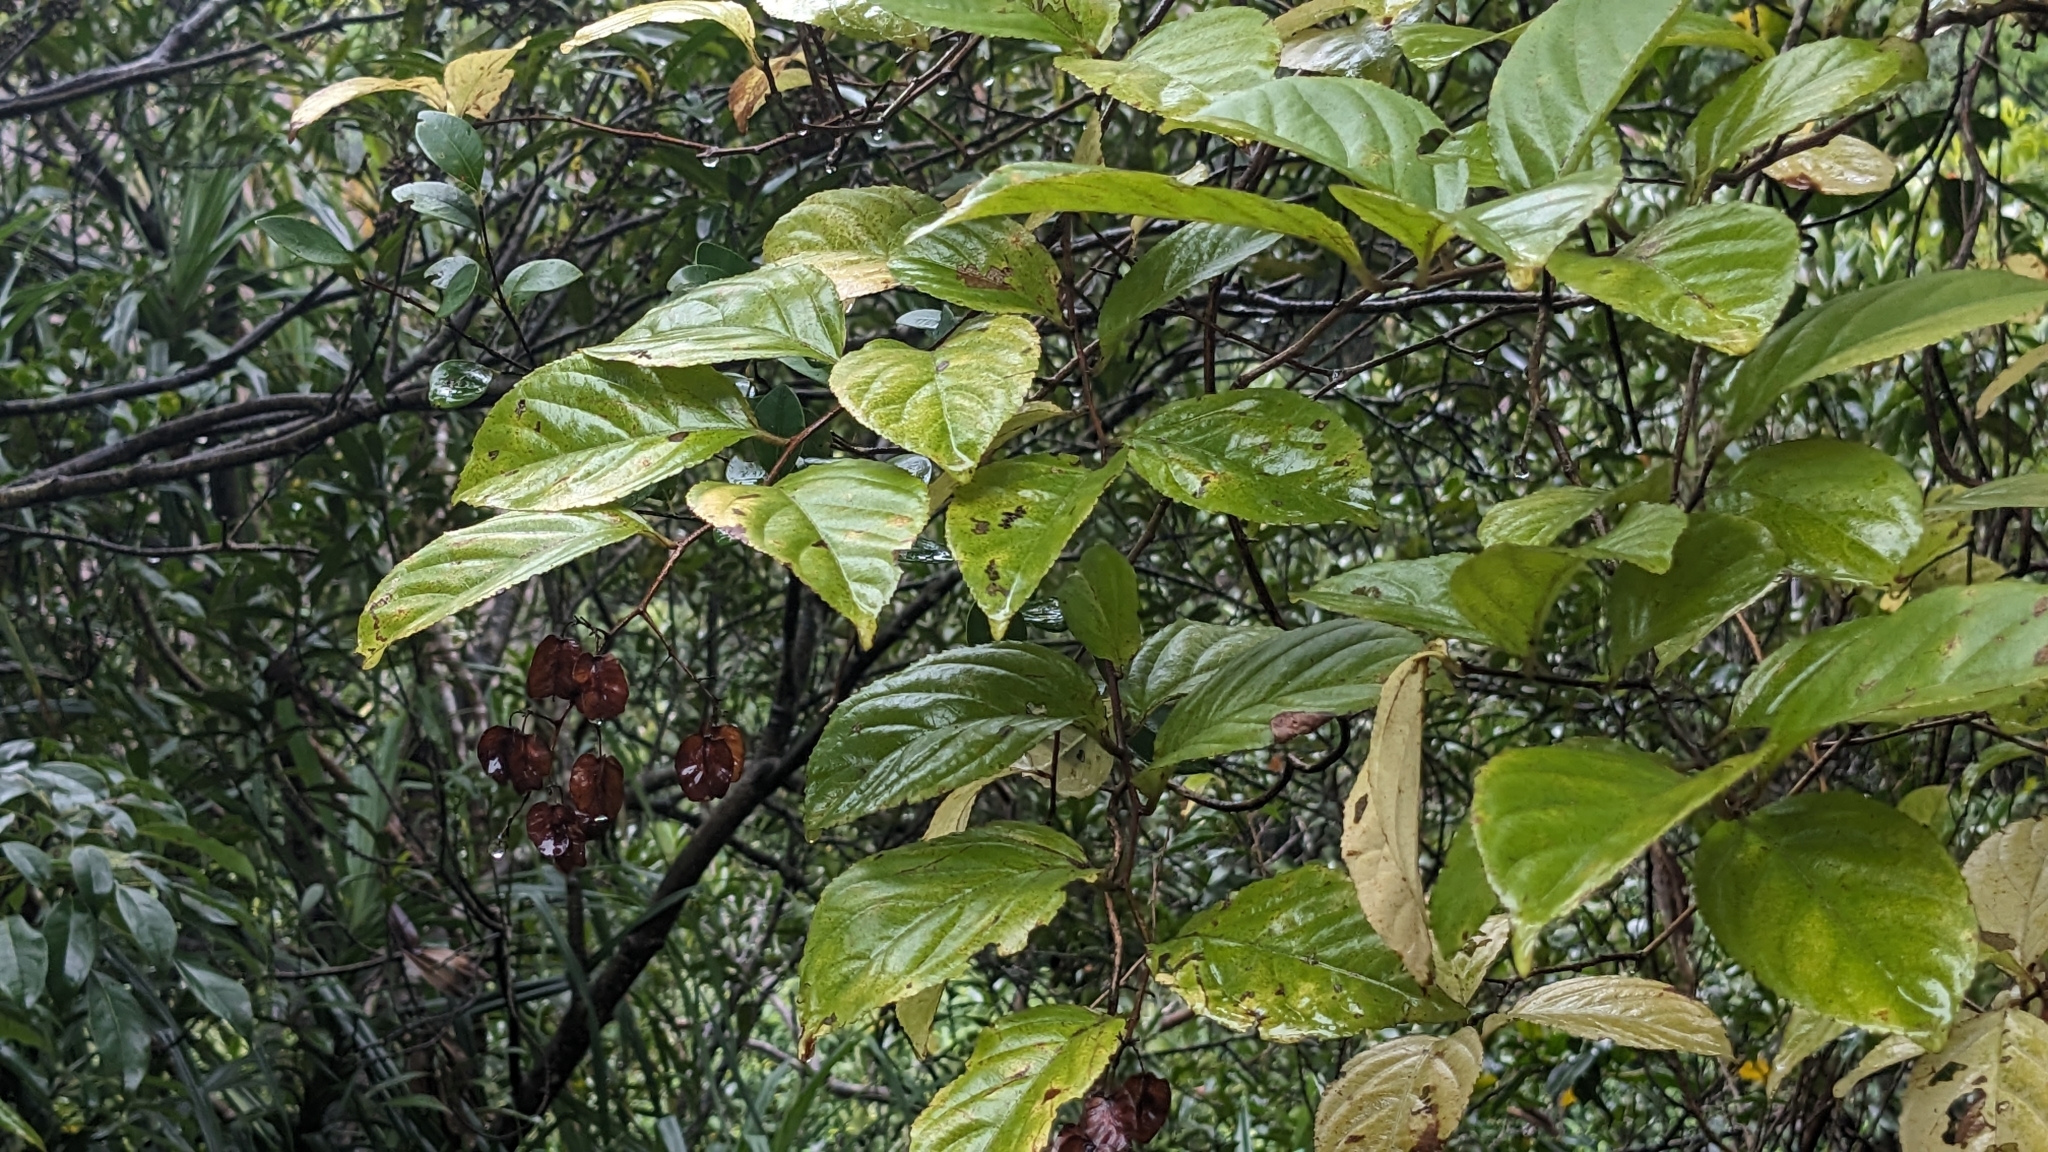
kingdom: Plantae
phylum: Tracheophyta
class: Magnoliopsida
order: Celastrales
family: Celastraceae
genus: Tripterygium
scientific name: Tripterygium wilfordii
